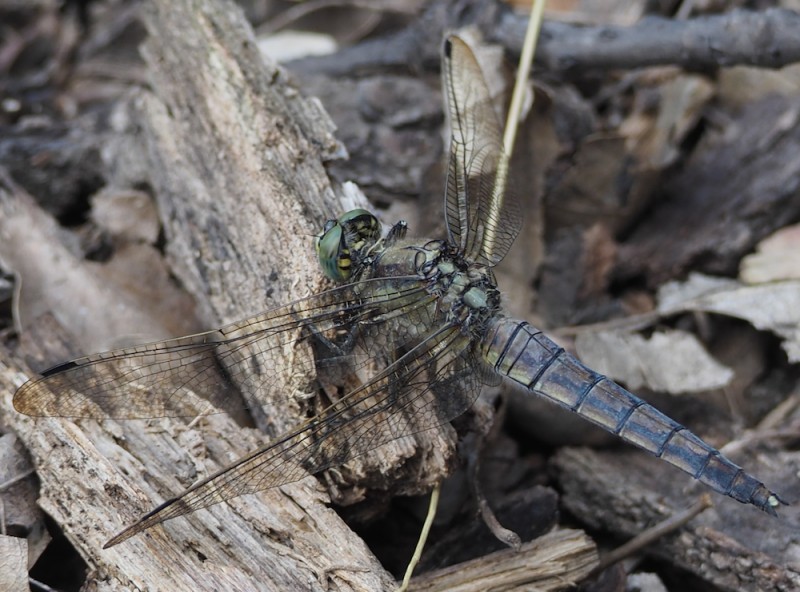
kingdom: Animalia
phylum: Arthropoda
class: Insecta
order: Odonata
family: Libellulidae
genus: Orthetrum
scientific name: Orthetrum cancellatum
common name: Black-tailed skimmer
